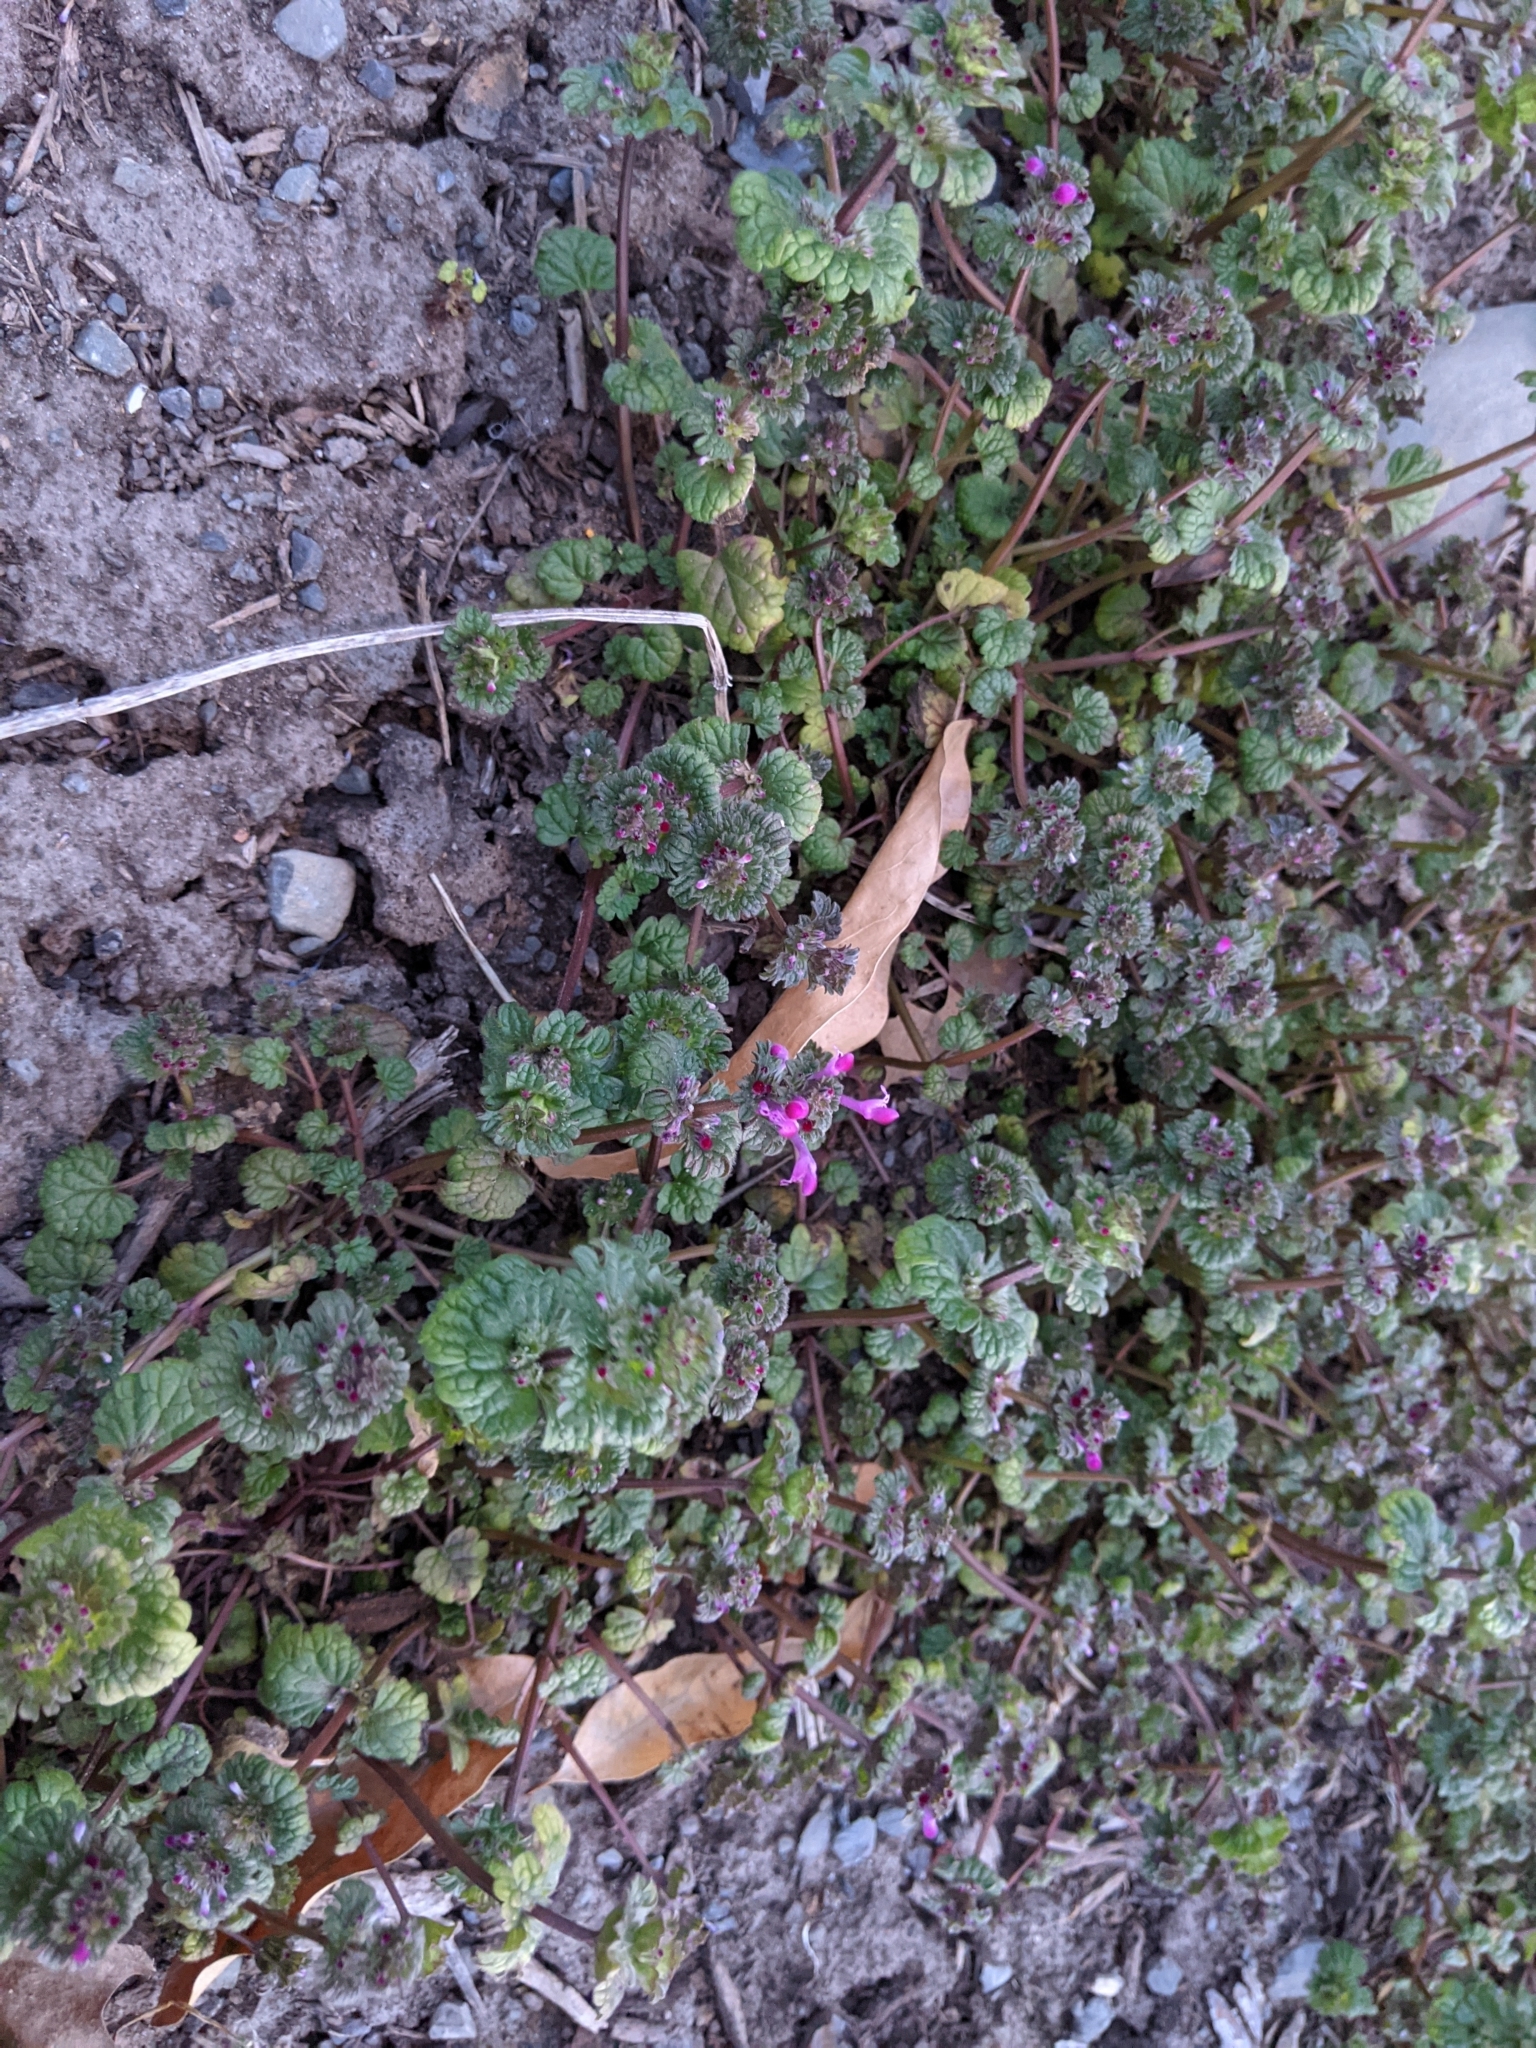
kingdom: Plantae
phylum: Tracheophyta
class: Magnoliopsida
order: Lamiales
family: Lamiaceae
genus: Lamium
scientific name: Lamium amplexicaule
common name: Henbit dead-nettle
